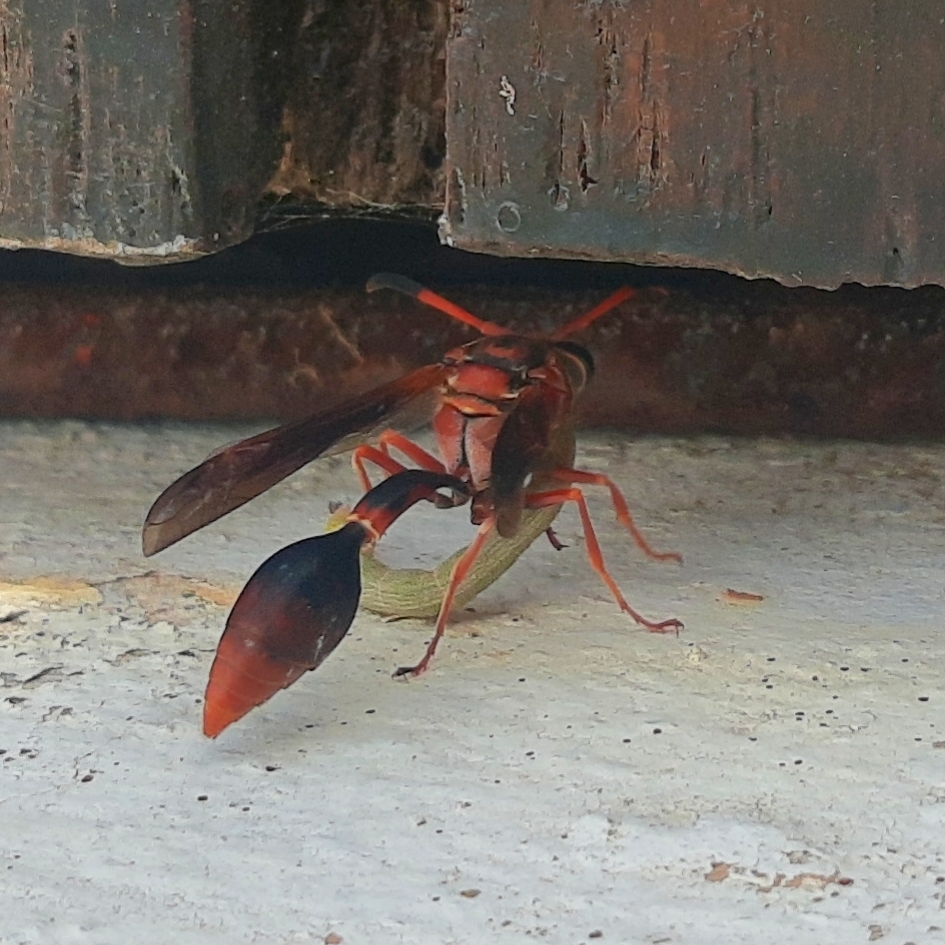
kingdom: Animalia
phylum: Arthropoda
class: Insecta
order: Hymenoptera
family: Eumenidae
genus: Zeta
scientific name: Zeta argillaceum
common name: Potter wasp
